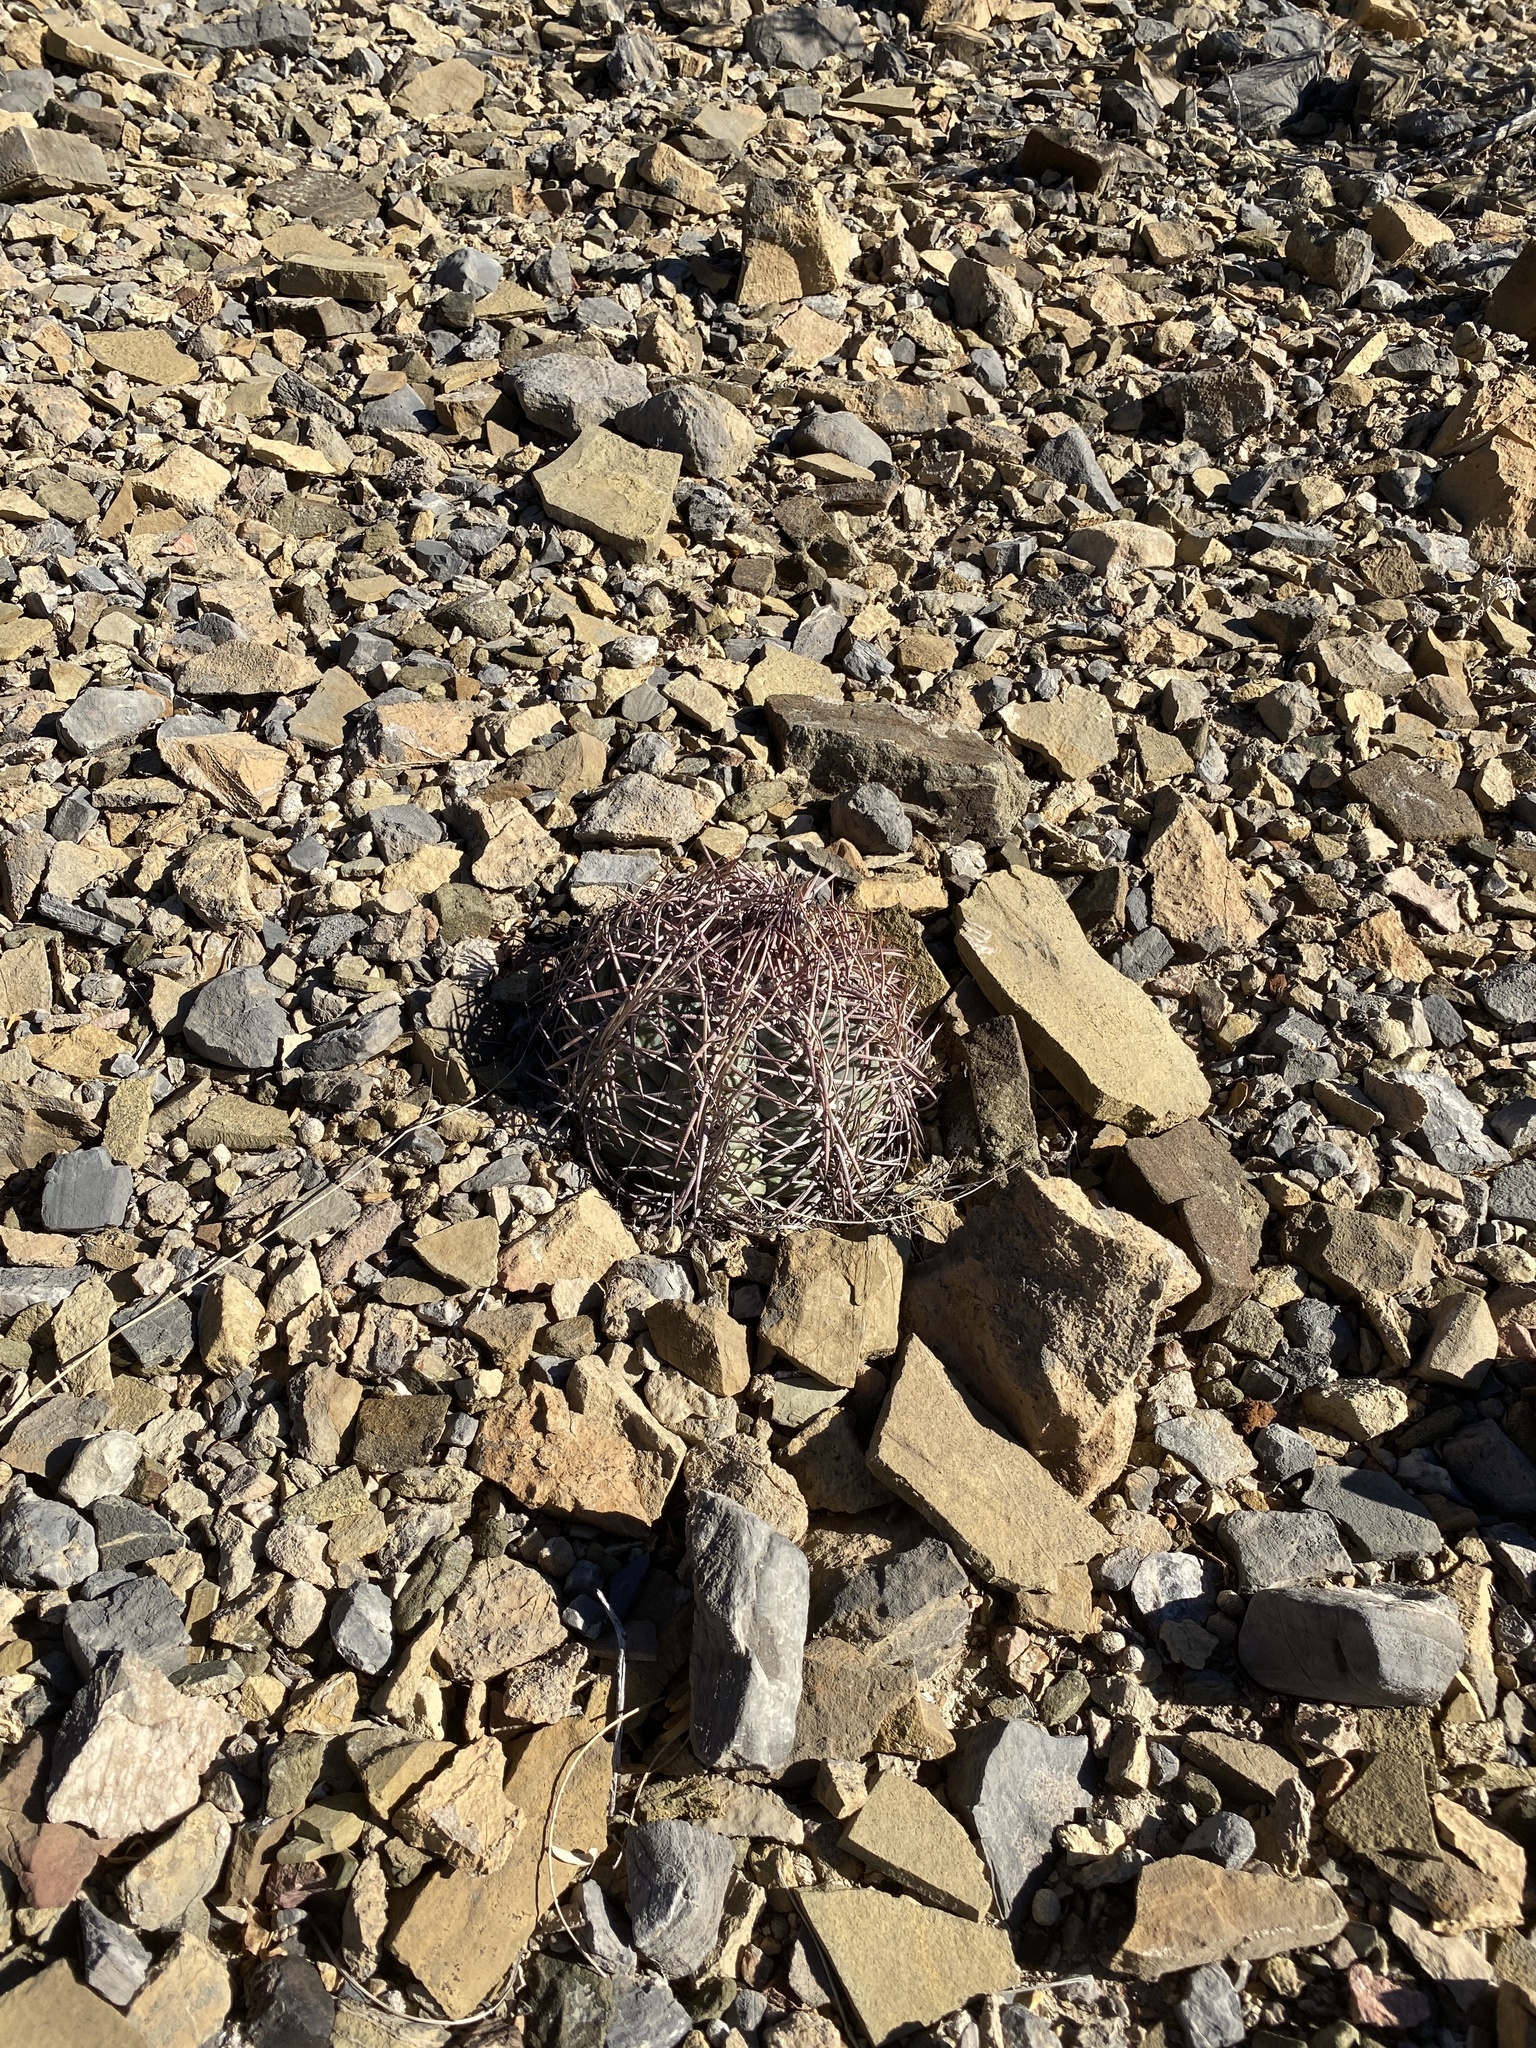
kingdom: Plantae
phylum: Tracheophyta
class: Magnoliopsida
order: Caryophyllales
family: Cactaceae
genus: Echinocactus
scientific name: Echinocactus horizonthalonius
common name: Devilshead
